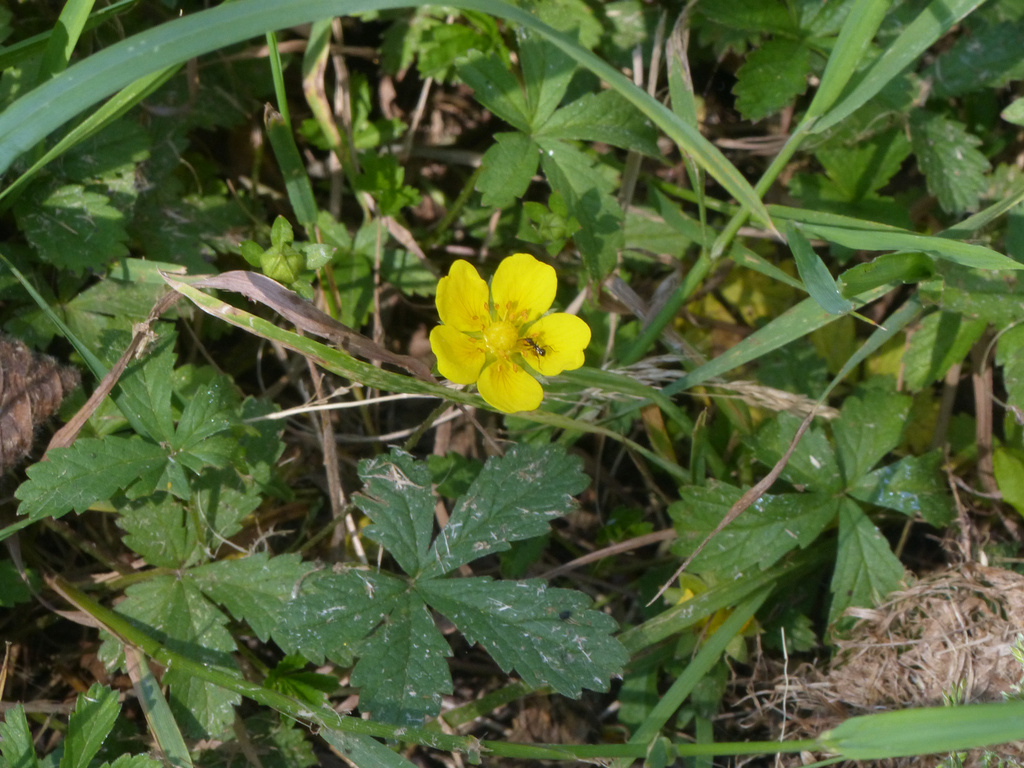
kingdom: Plantae
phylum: Tracheophyta
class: Magnoliopsida
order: Rosales
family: Rosaceae
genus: Potentilla
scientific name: Potentilla reptans
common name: Creeping cinquefoil
